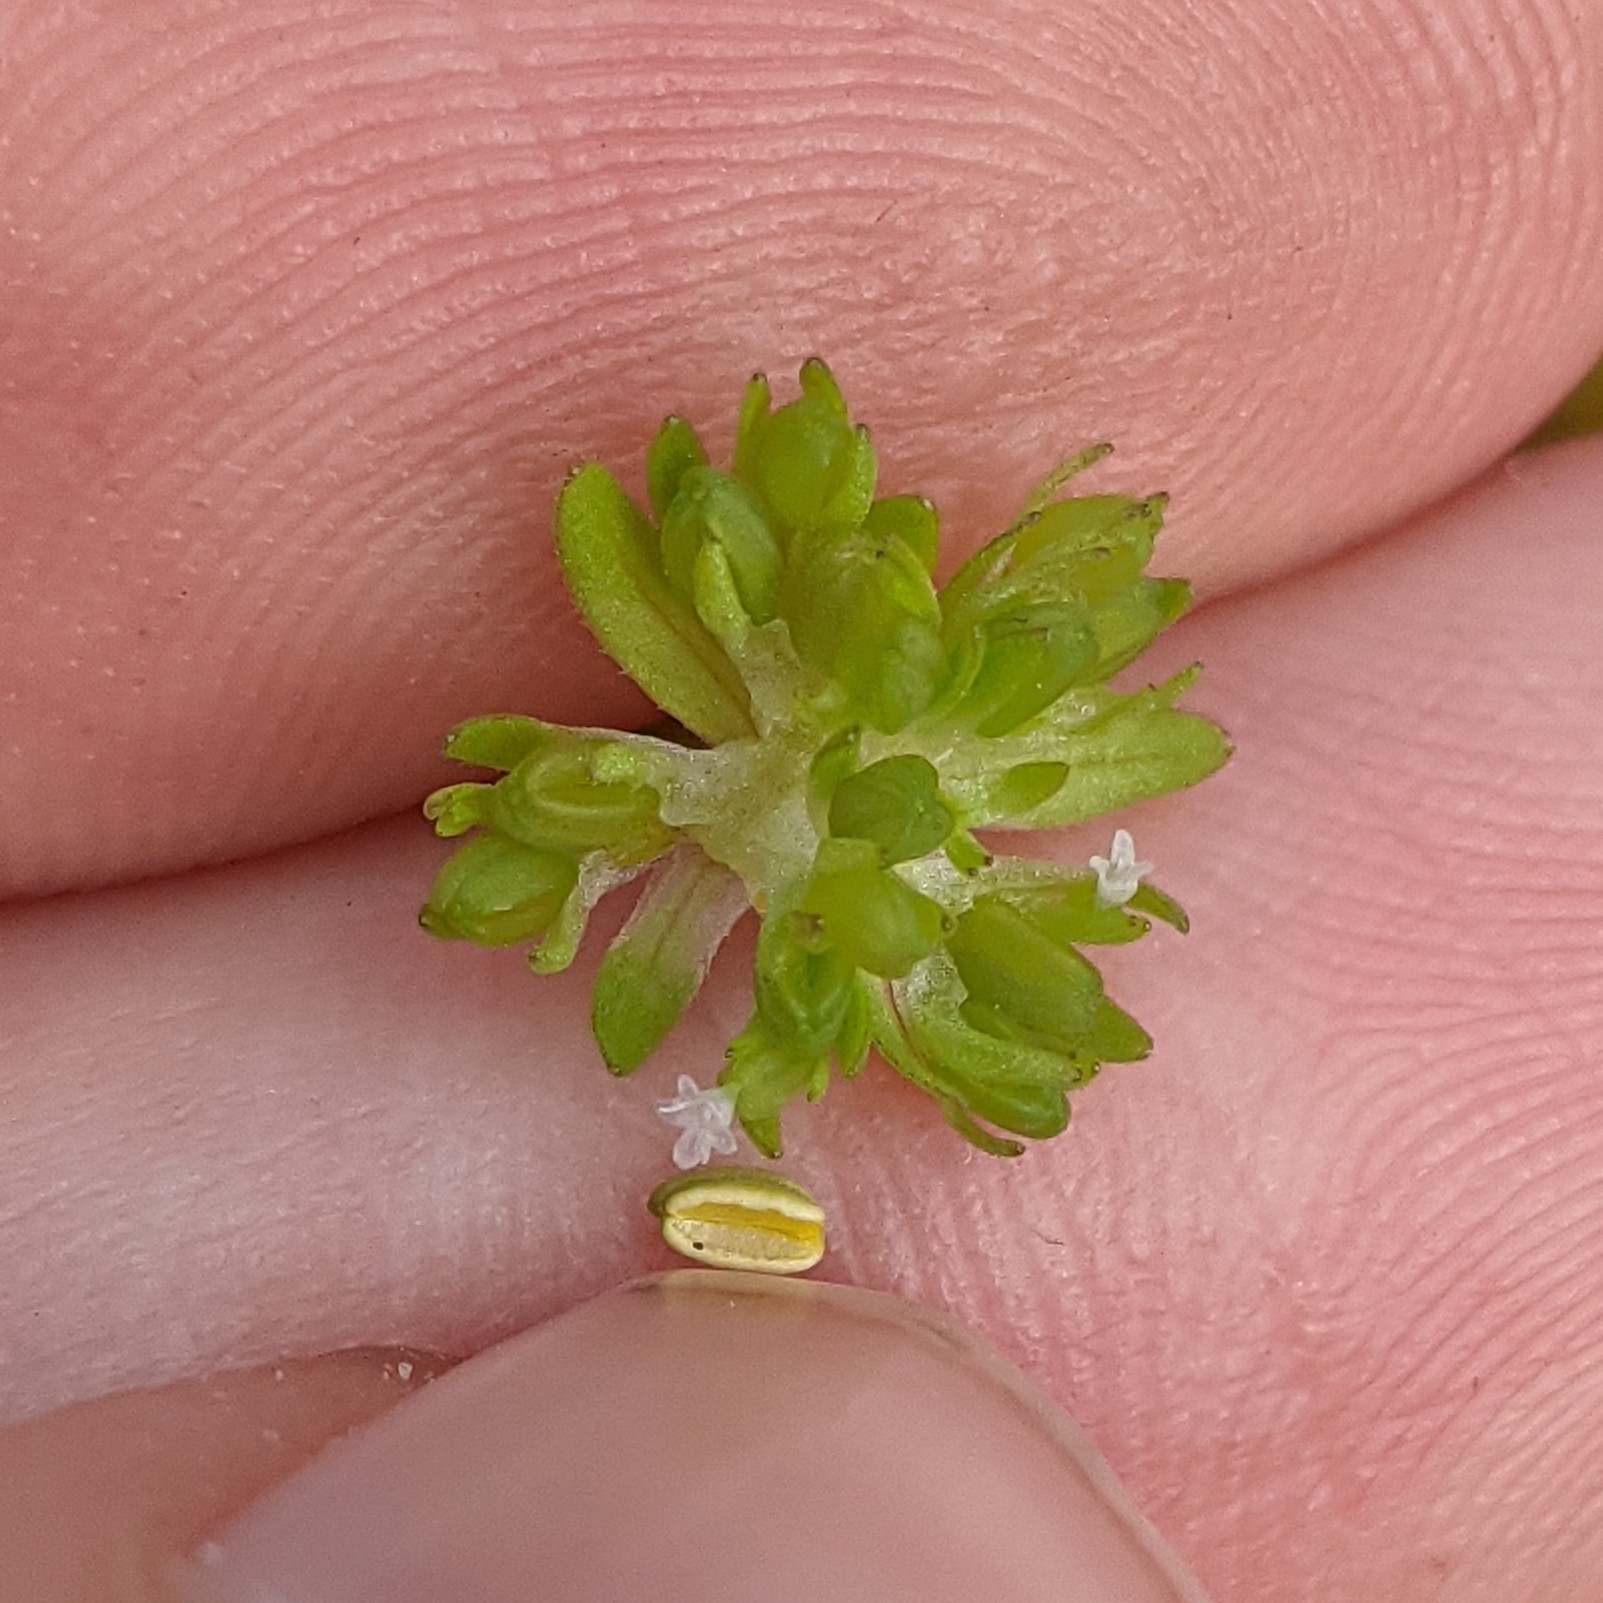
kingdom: Plantae
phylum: Tracheophyta
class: Magnoliopsida
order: Dipsacales
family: Caprifoliaceae
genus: Valerianella
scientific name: Valerianella carinata
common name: Keeled-fruited cornsalad
